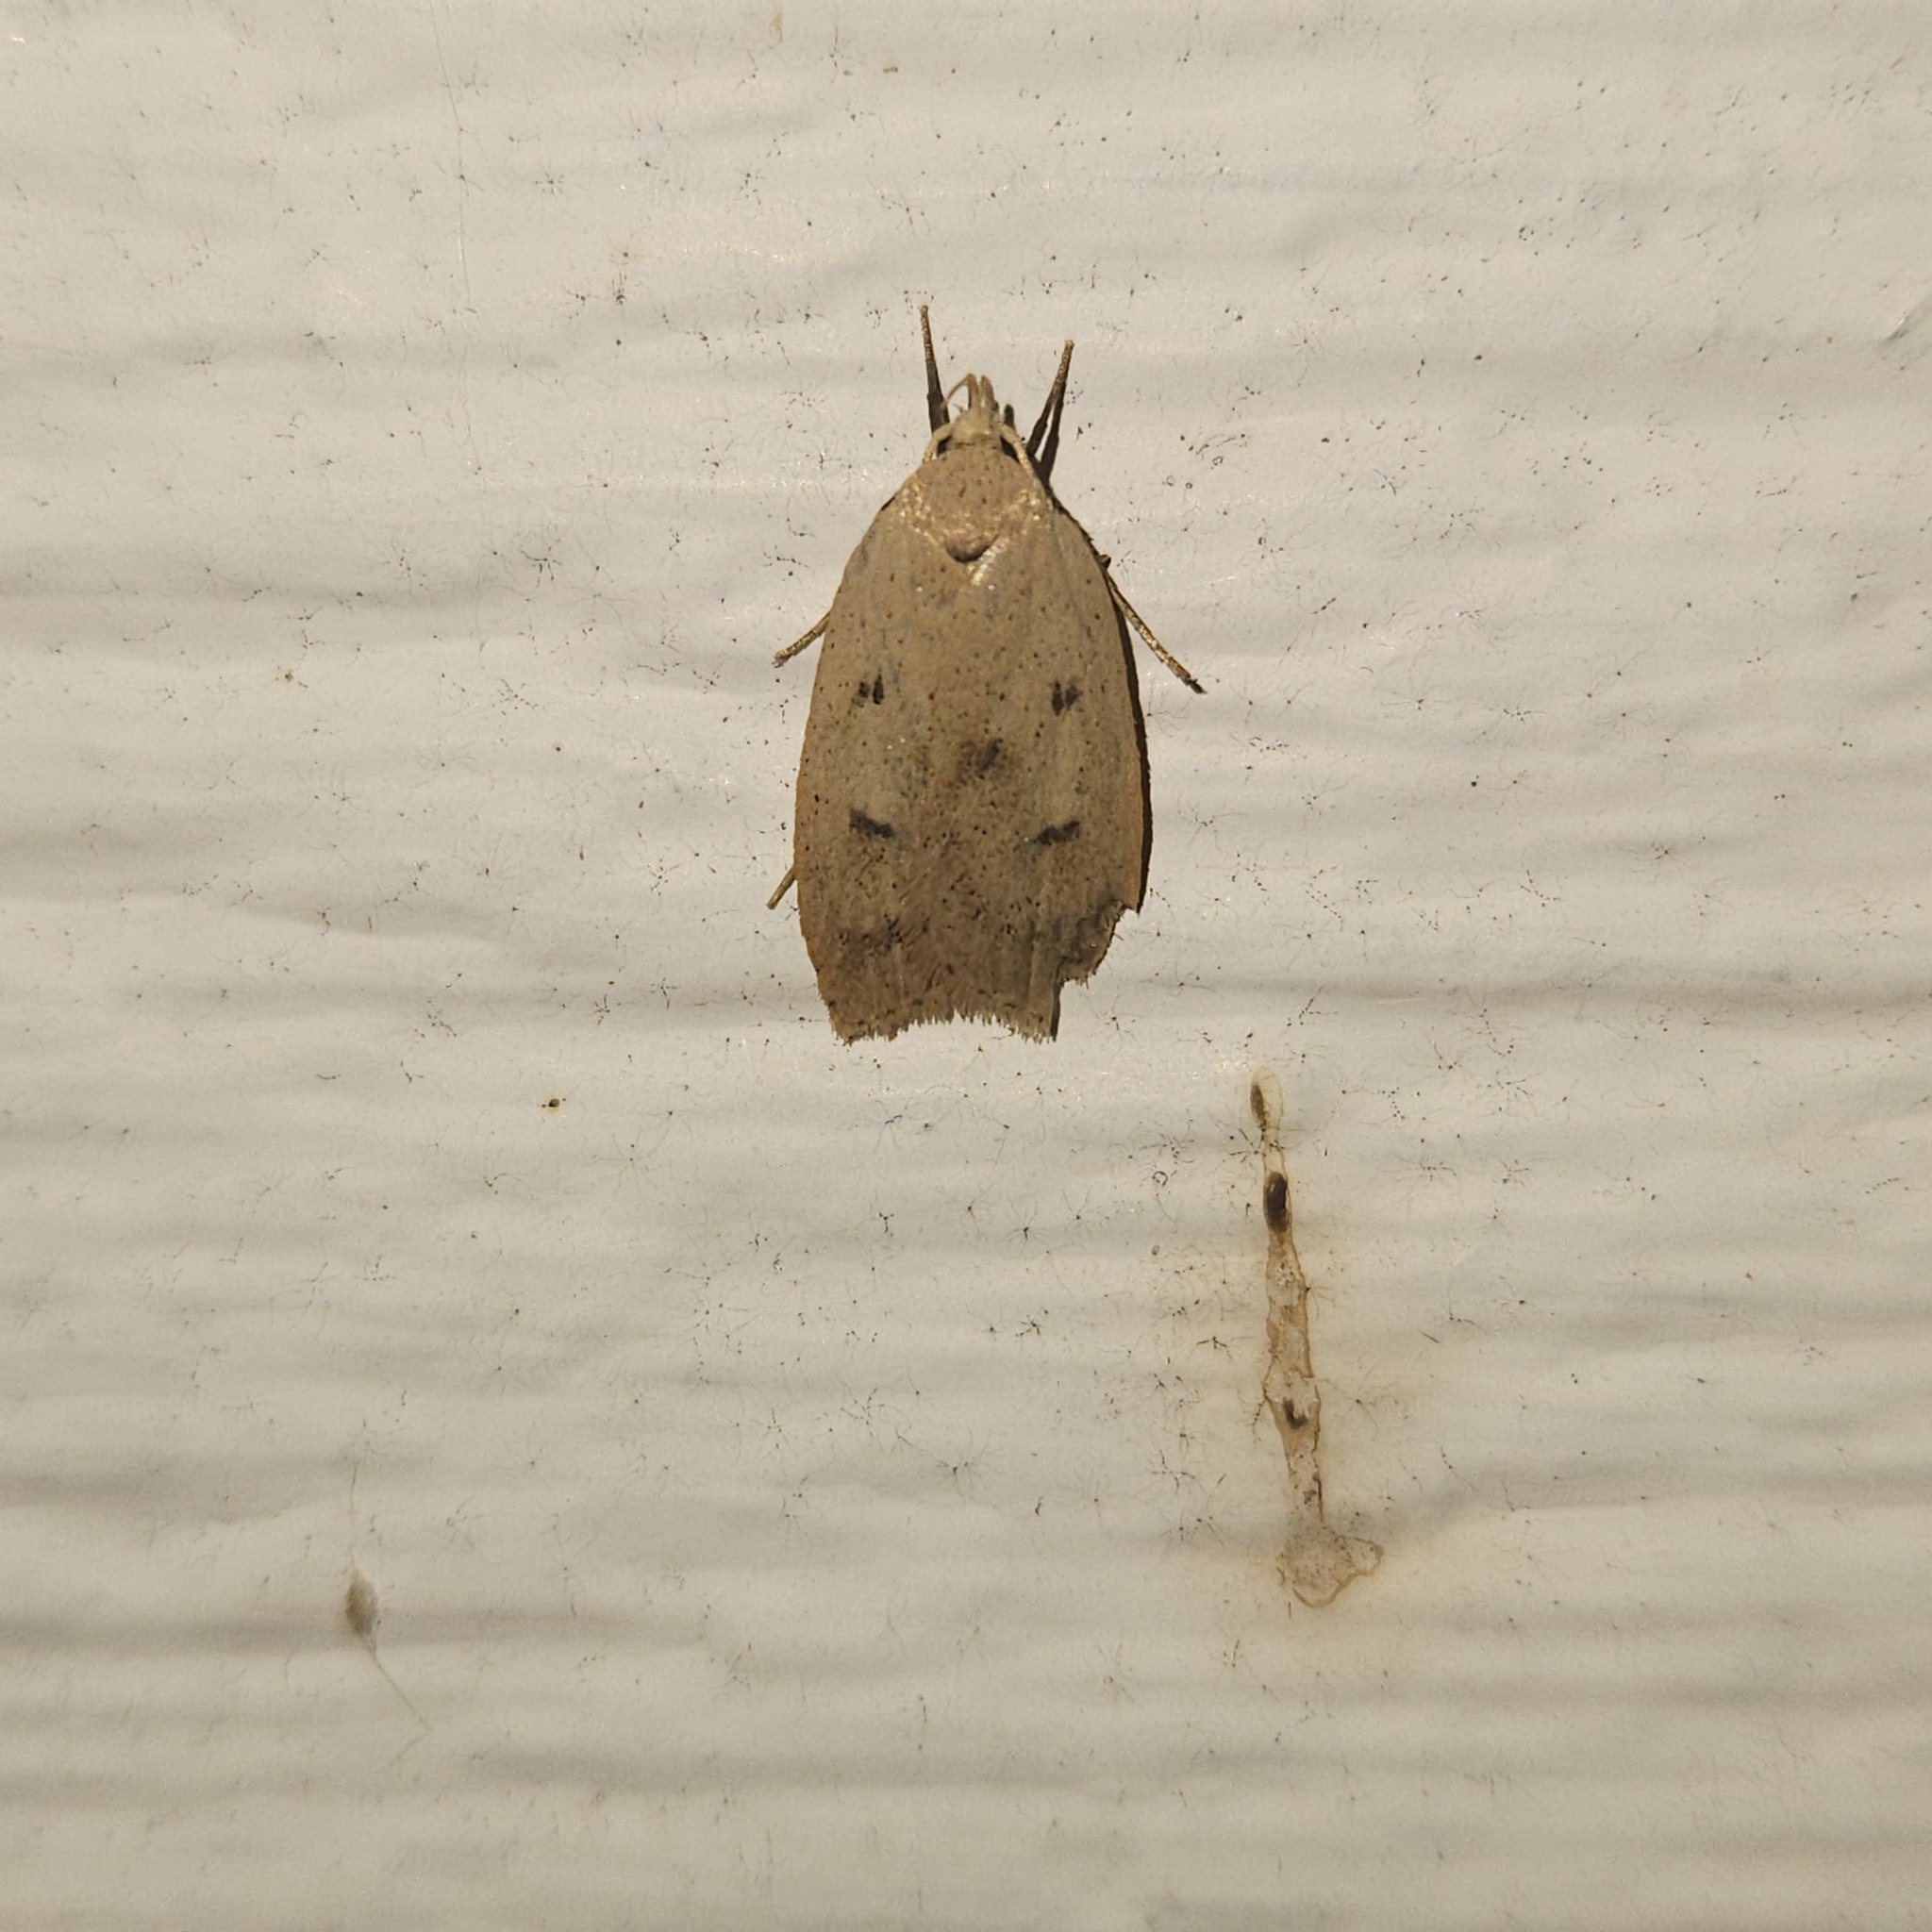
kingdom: Animalia
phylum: Arthropoda
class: Insecta
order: Lepidoptera
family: Peleopodidae
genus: Machimia
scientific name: Machimia tentoriferella
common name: Gold-striped leaftier moth
